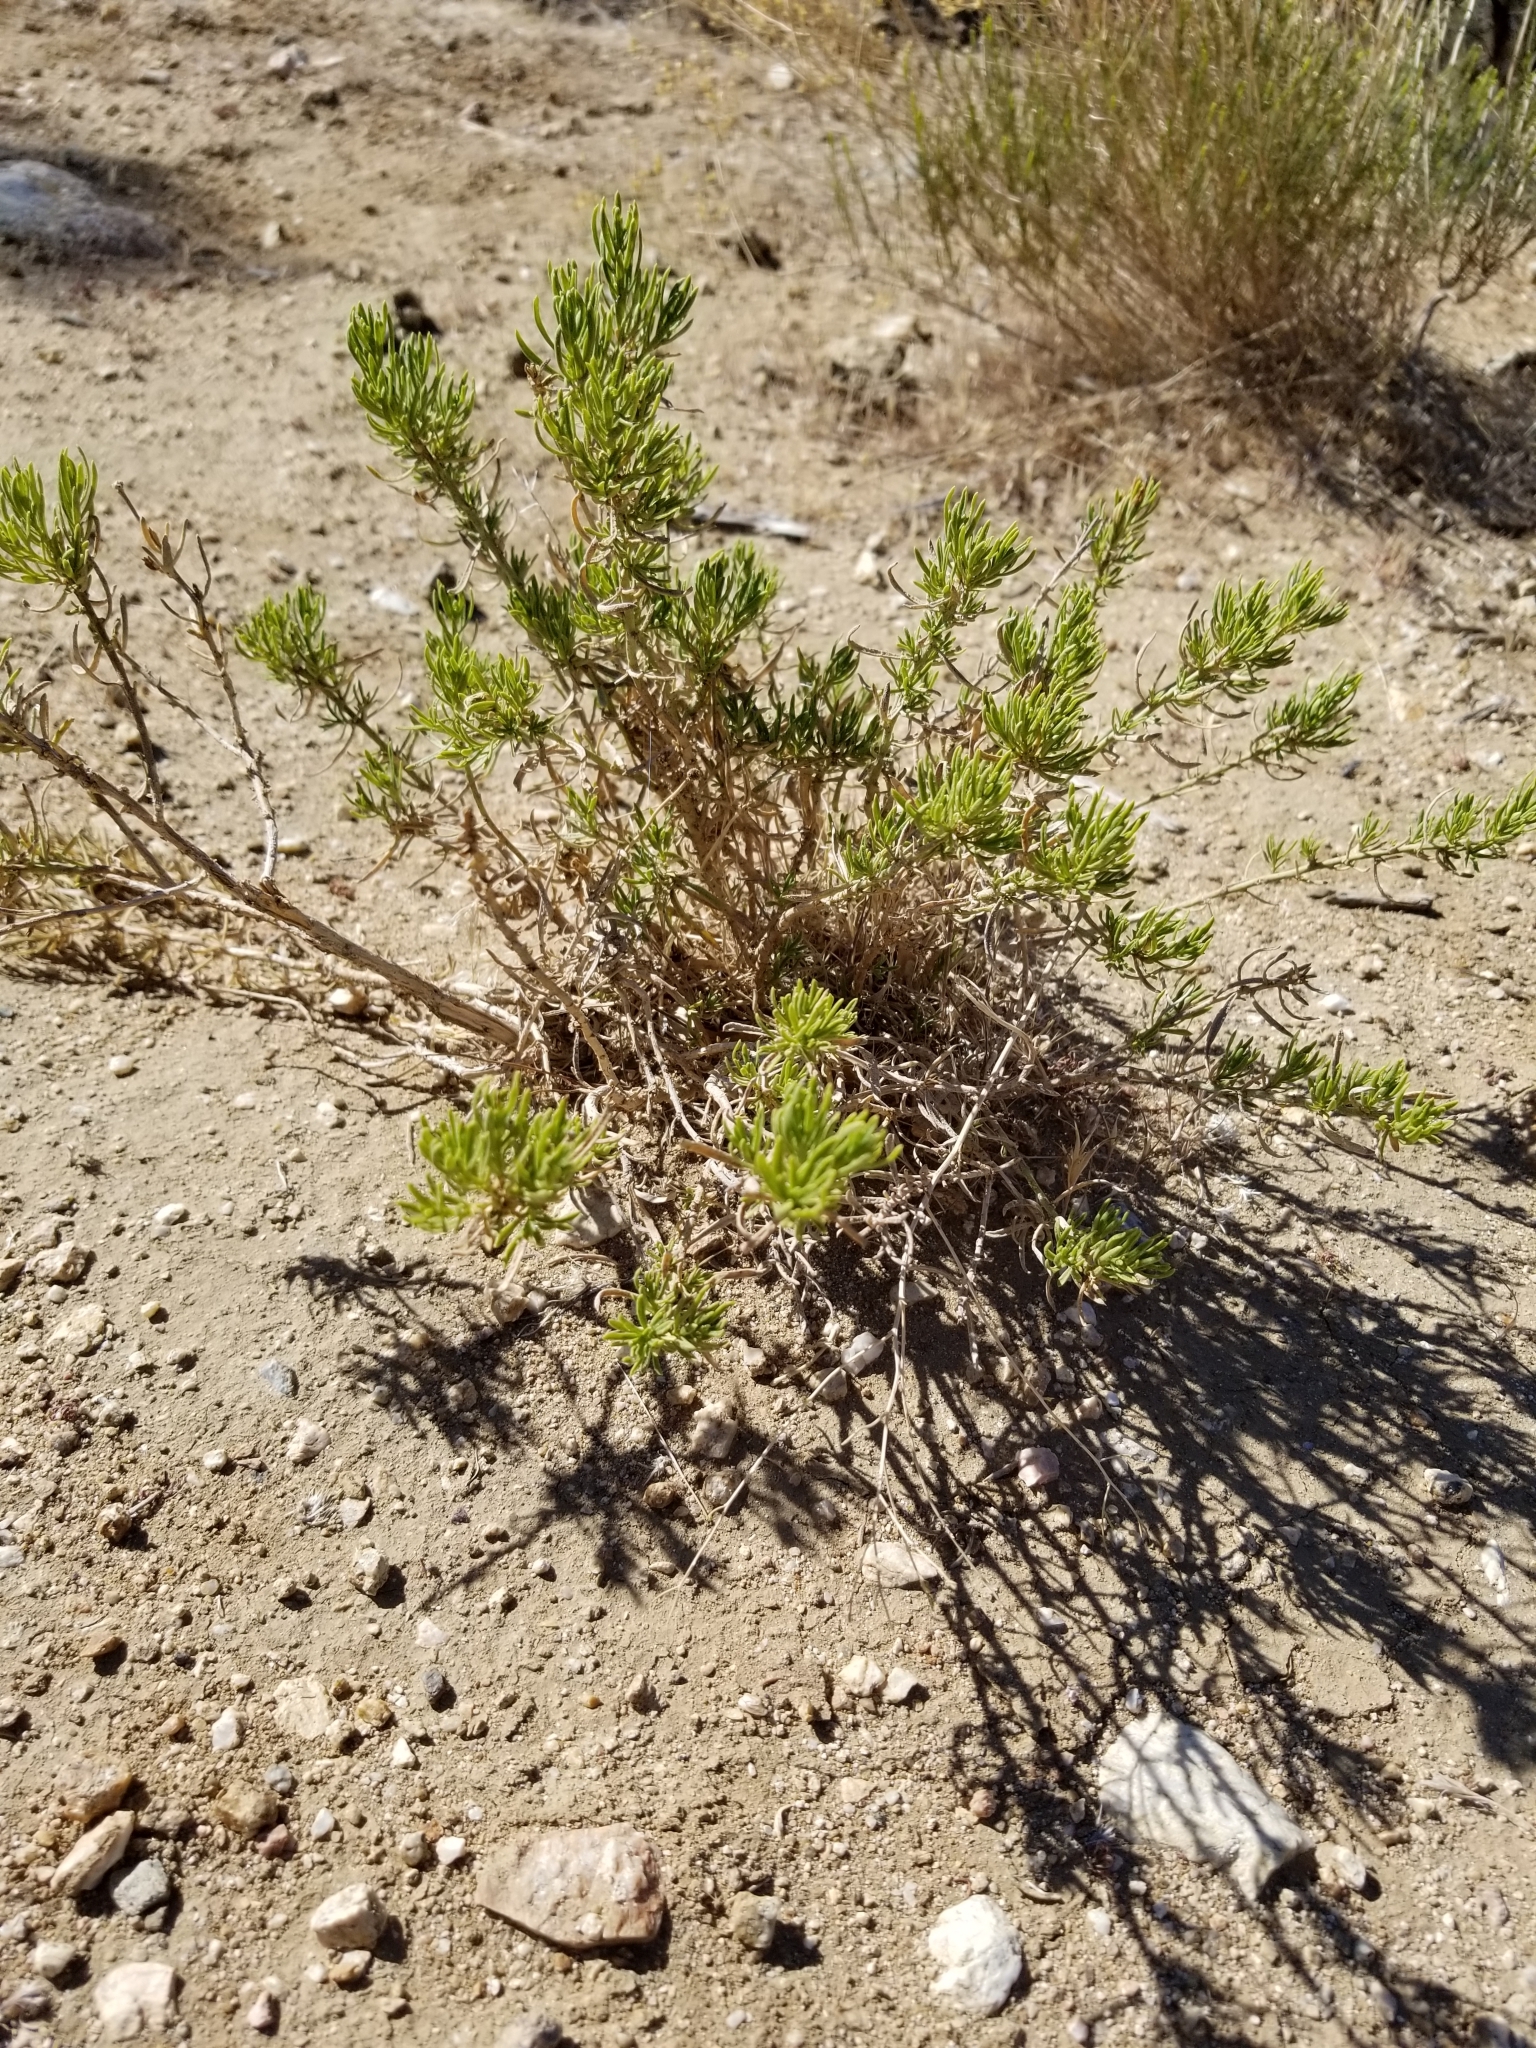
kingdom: Plantae
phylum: Tracheophyta
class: Magnoliopsida
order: Asterales
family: Asteraceae
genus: Ericameria
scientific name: Ericameria linearifolia
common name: Interior goldenbush
